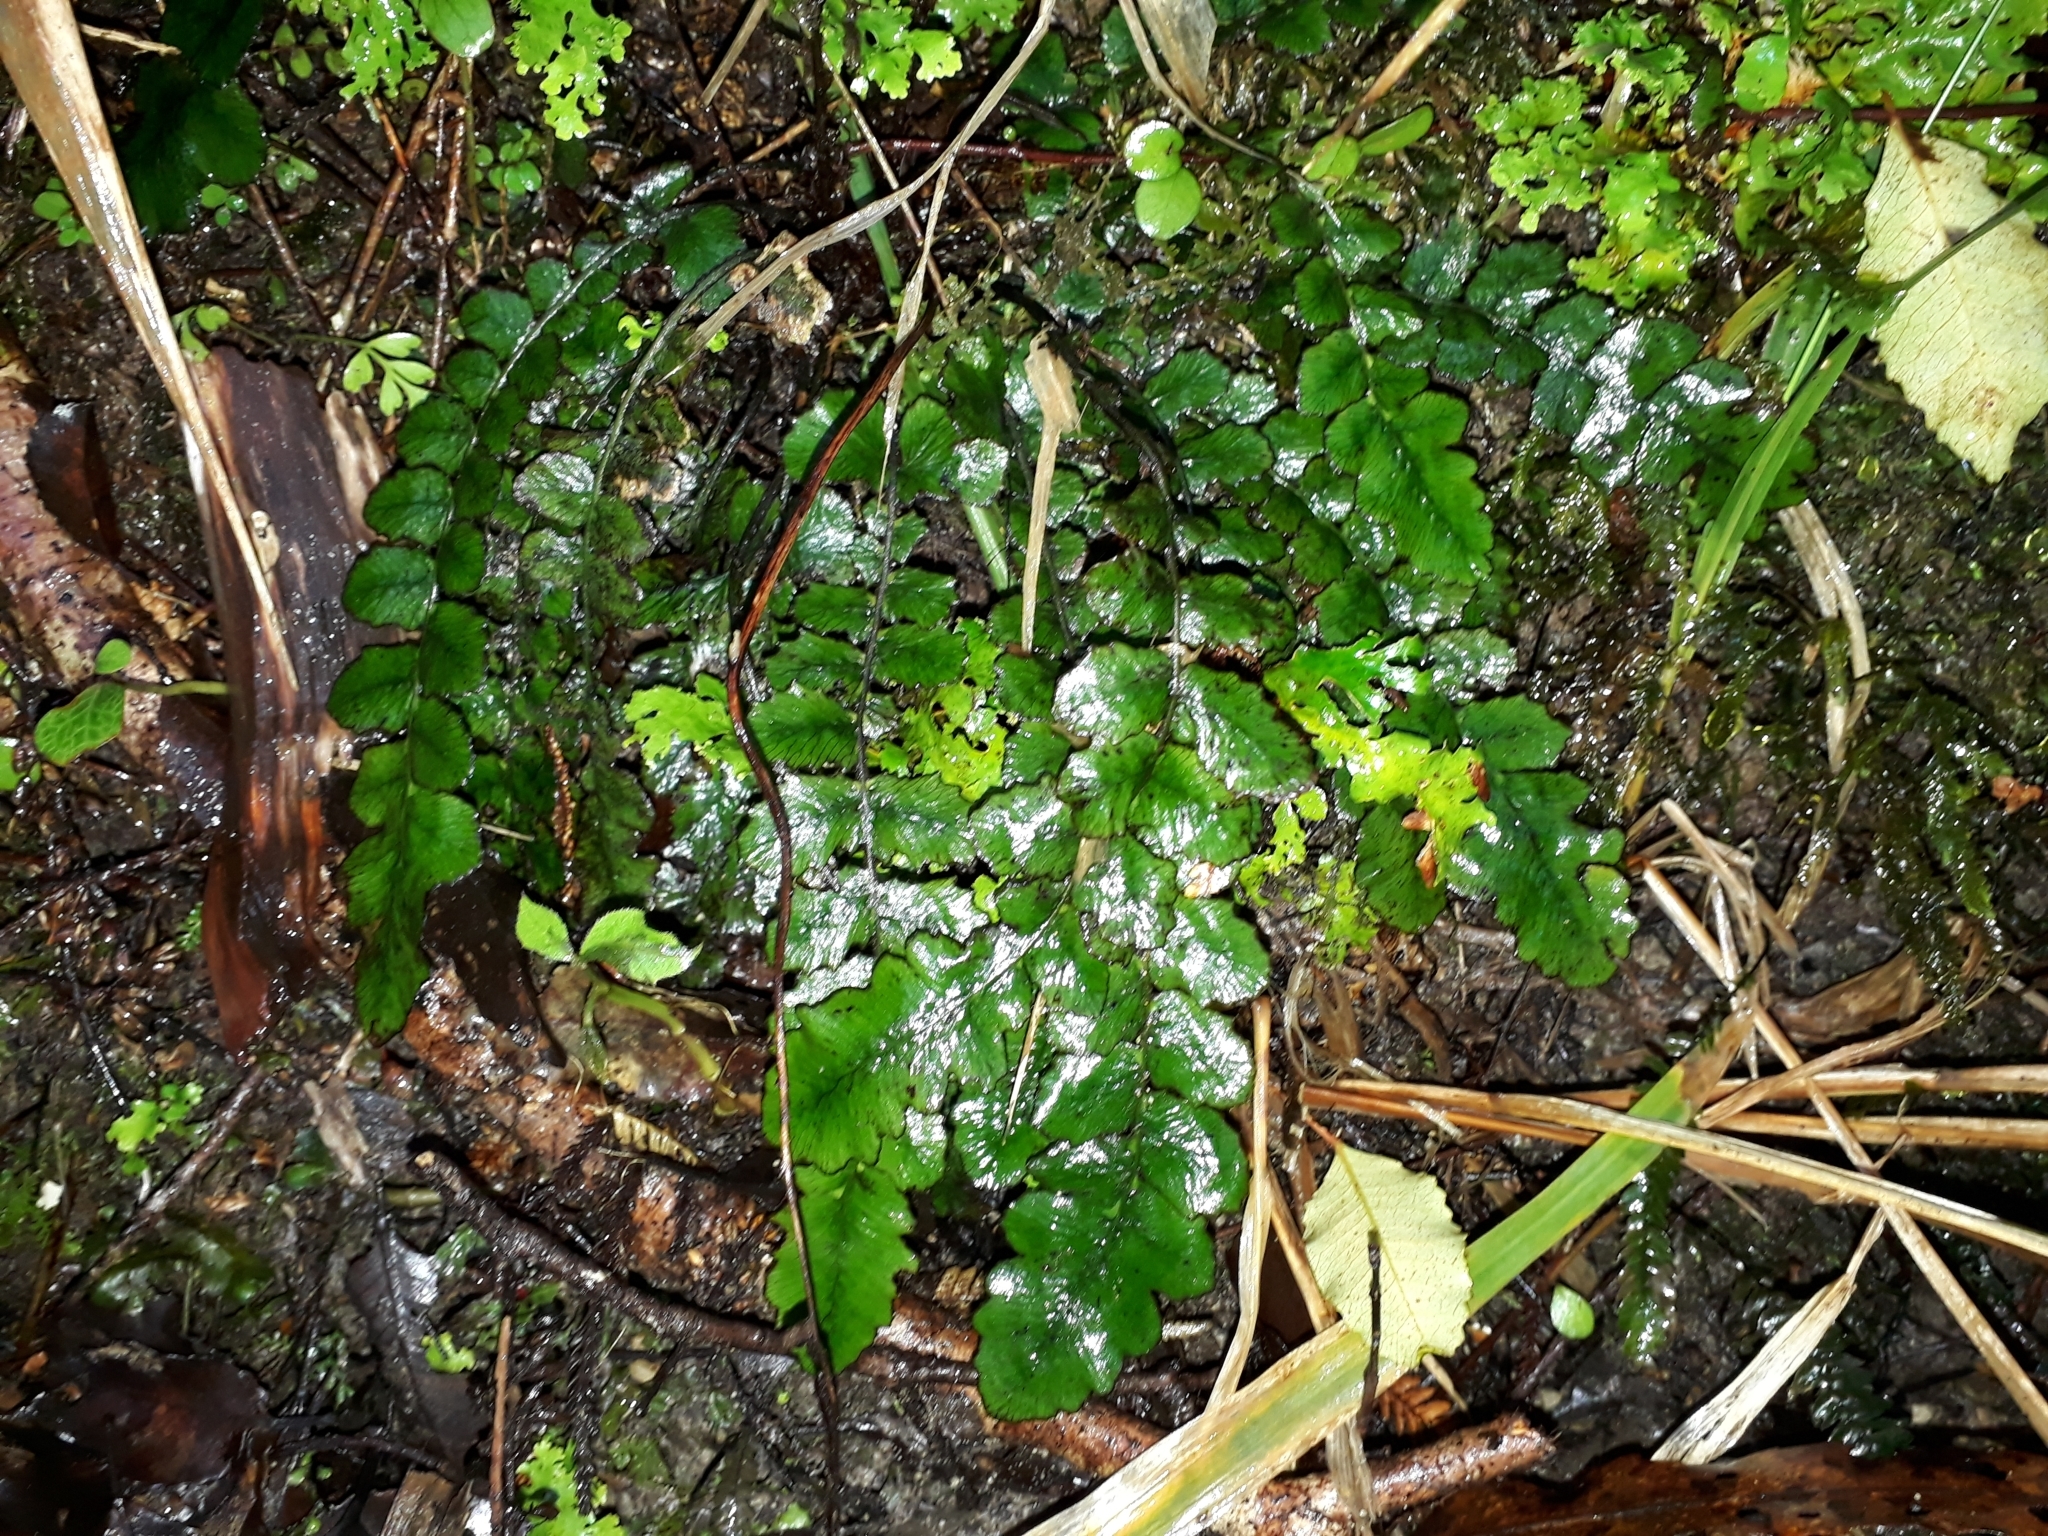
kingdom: Plantae
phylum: Tracheophyta
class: Polypodiopsida
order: Polypodiales
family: Blechnaceae
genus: Cranfillia
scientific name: Cranfillia nigra
